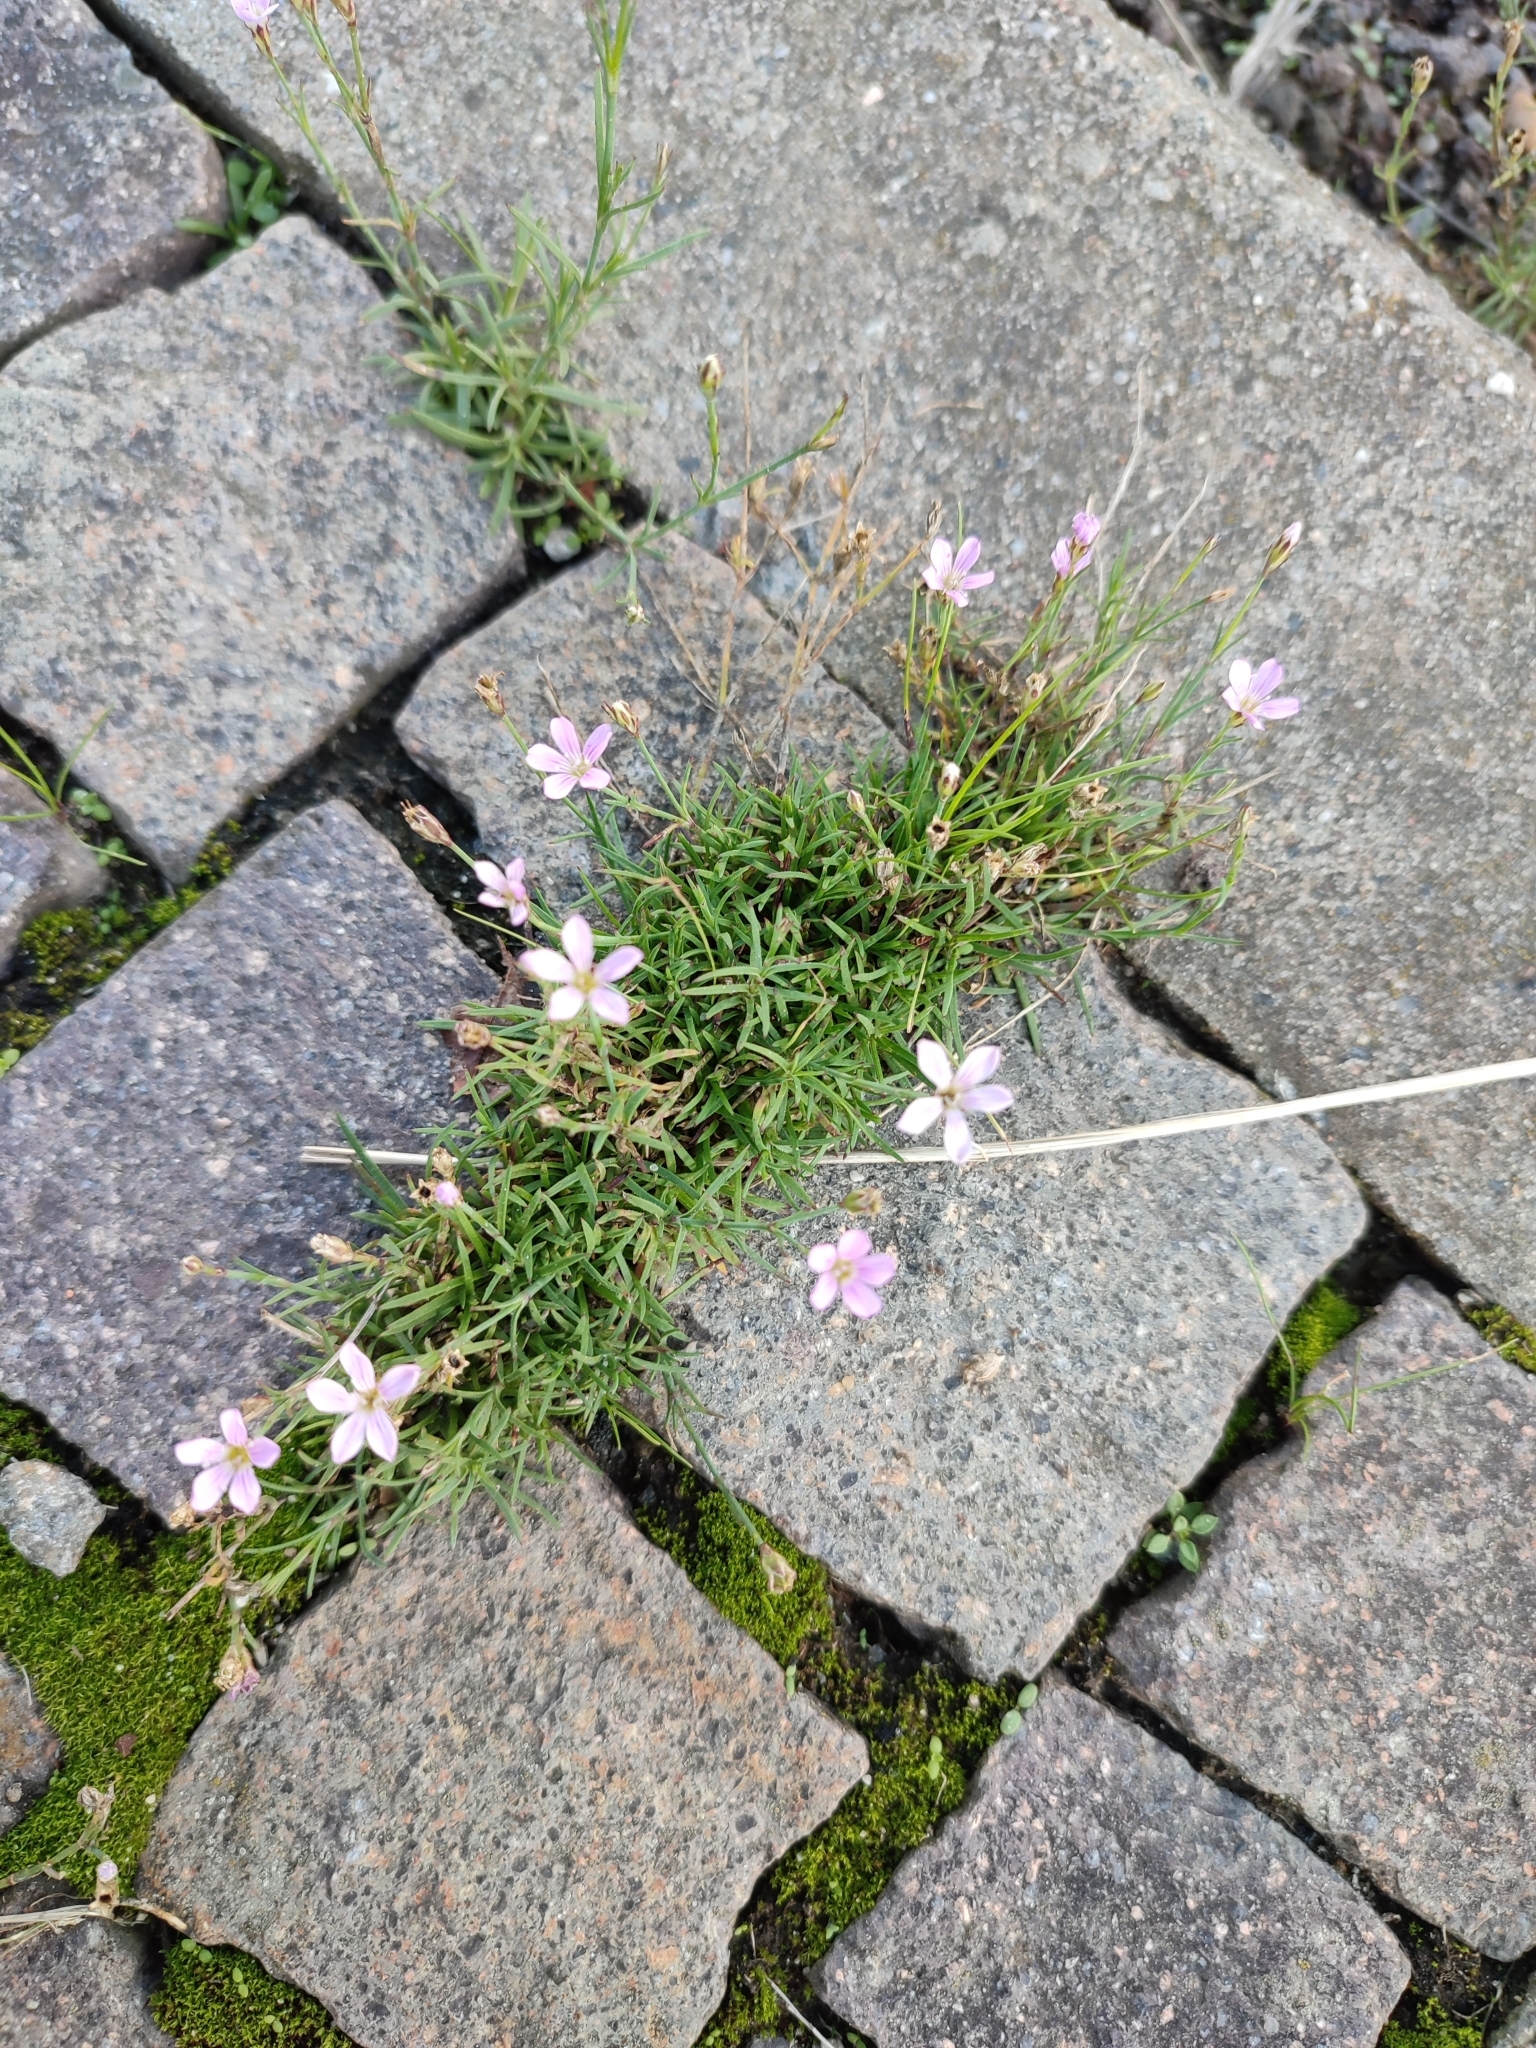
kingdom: Plantae
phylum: Tracheophyta
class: Magnoliopsida
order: Caryophyllales
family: Caryophyllaceae
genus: Petrorhagia
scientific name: Petrorhagia saxifraga
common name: Tunicflower
